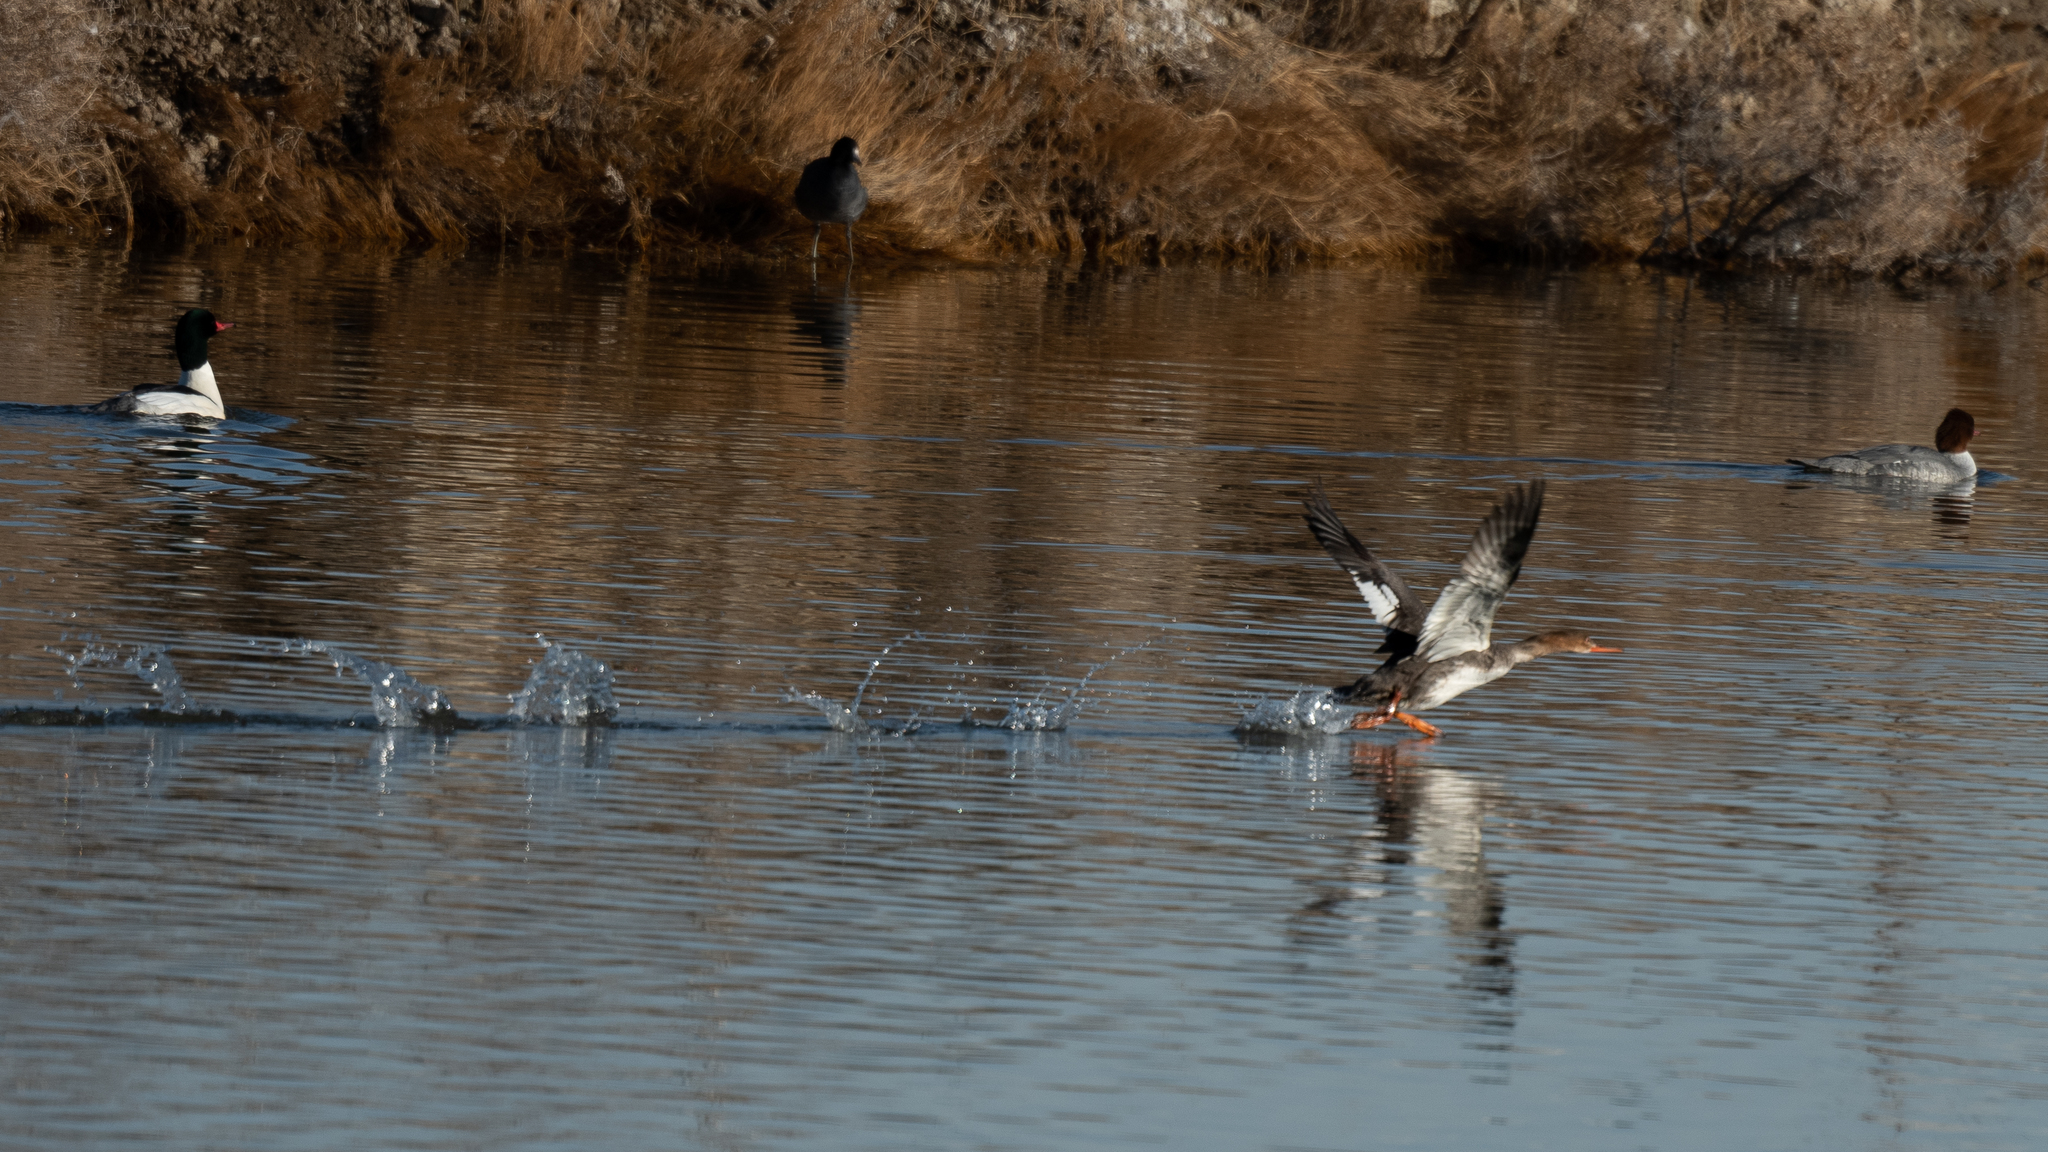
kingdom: Animalia
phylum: Chordata
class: Aves
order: Anseriformes
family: Anatidae
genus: Mergus
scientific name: Mergus serrator
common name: Red-breasted merganser
